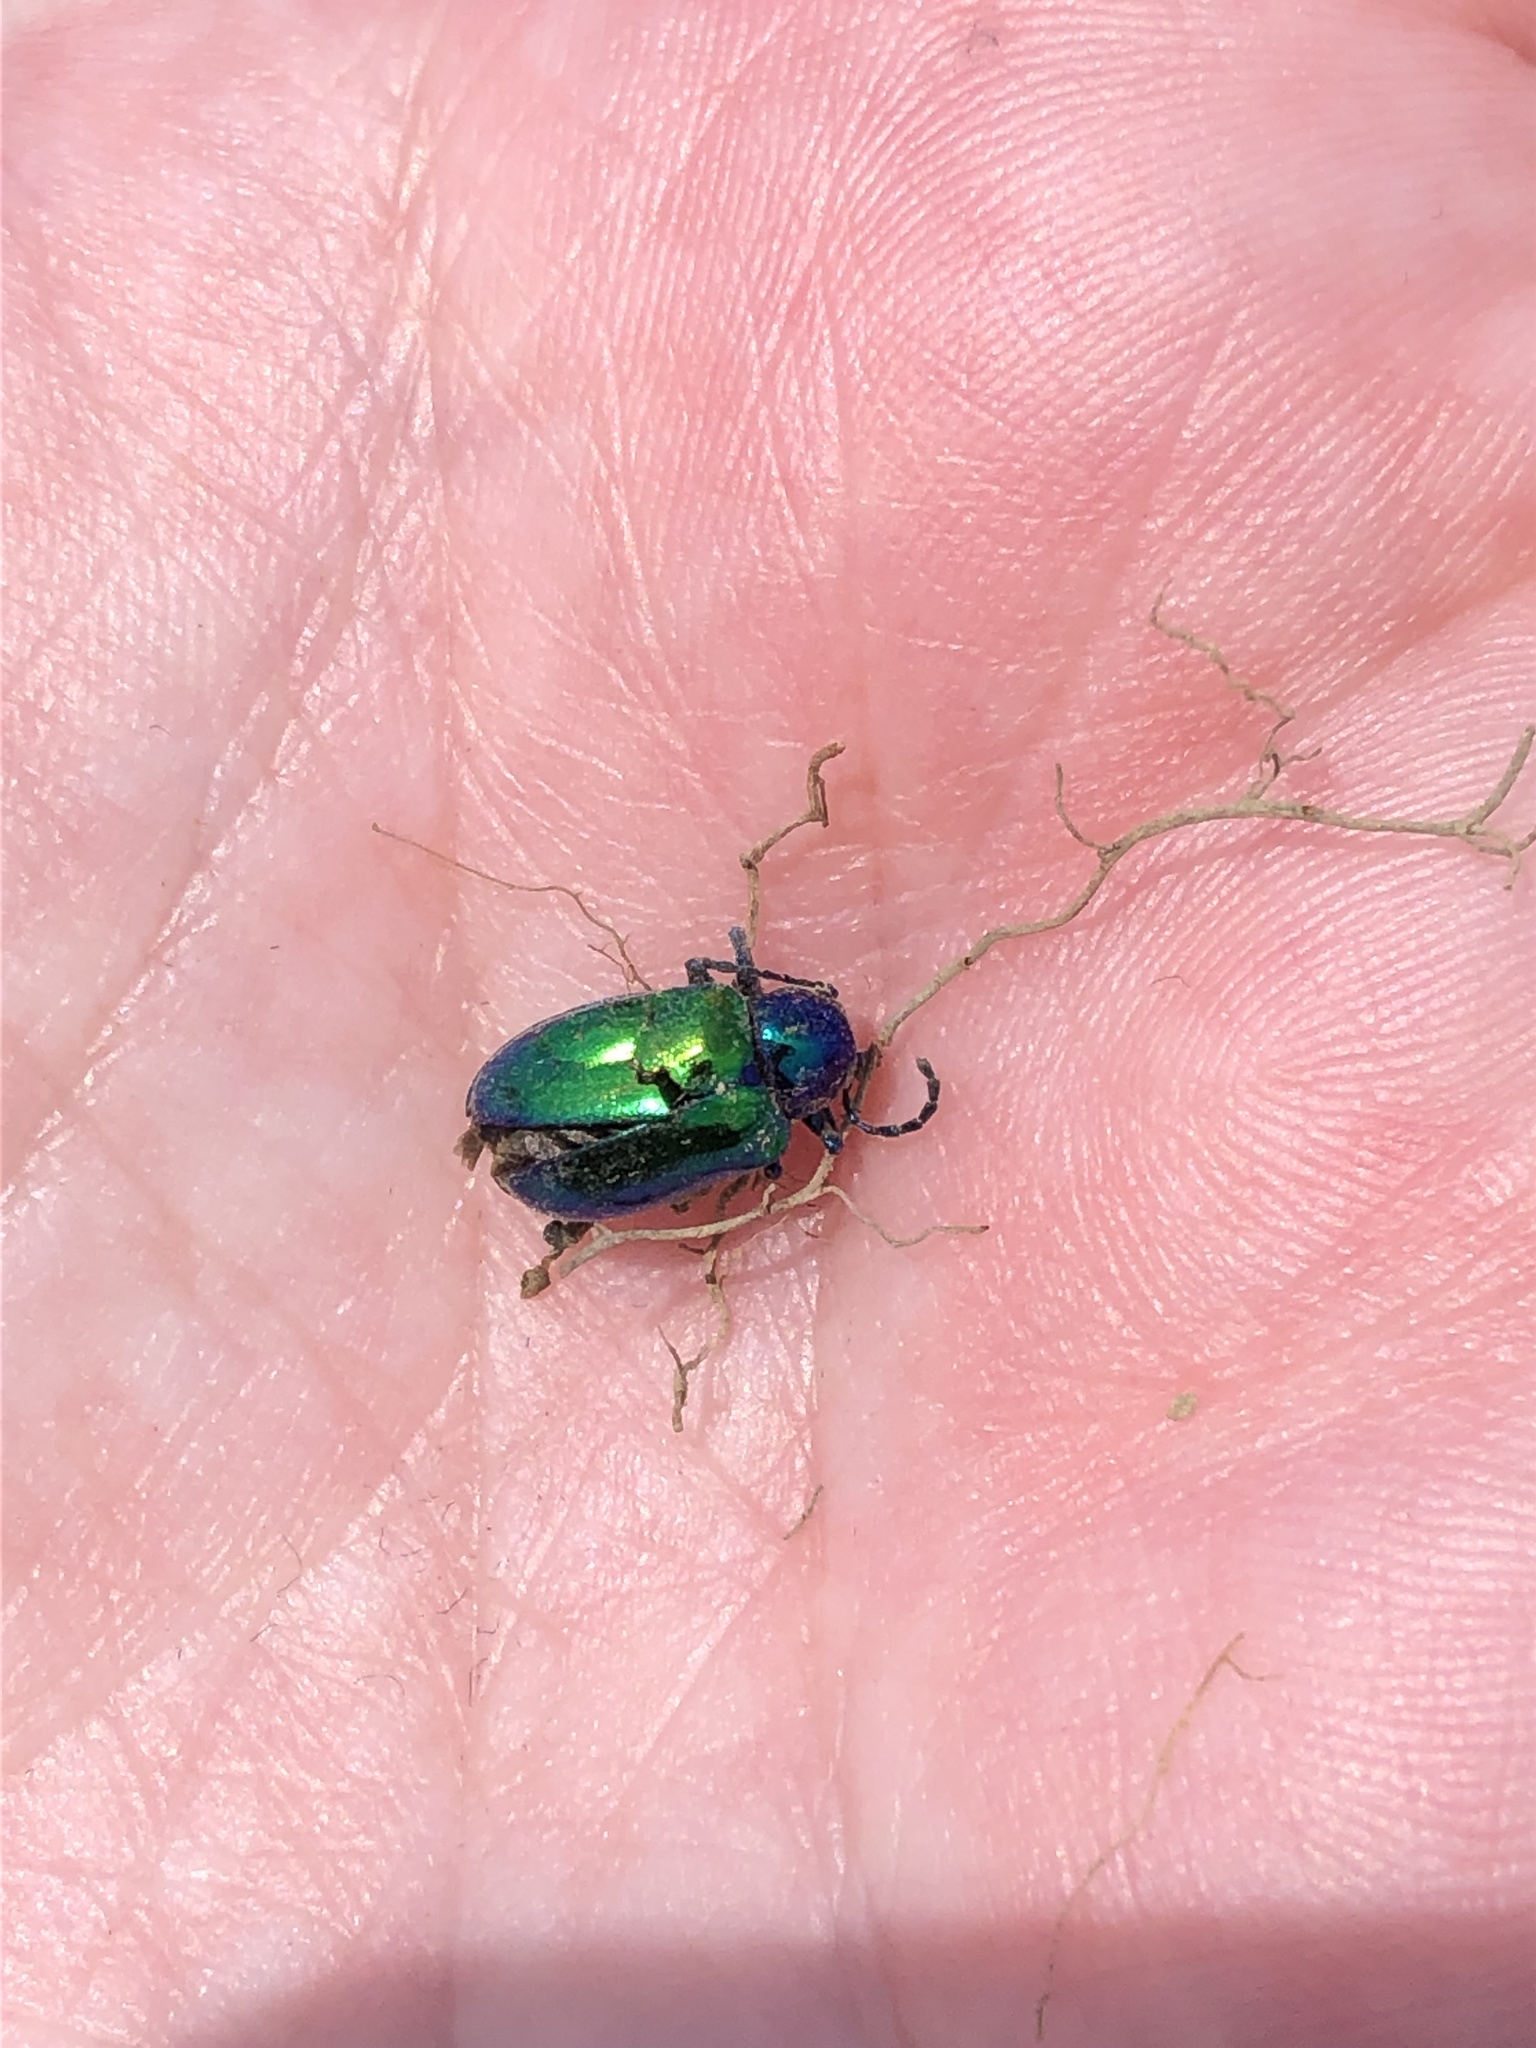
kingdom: Animalia
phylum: Arthropoda
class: Insecta
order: Coleoptera
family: Chrysomelidae
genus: Chrysochus
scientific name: Chrysochus auratus
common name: Dogbane leaf beetle
